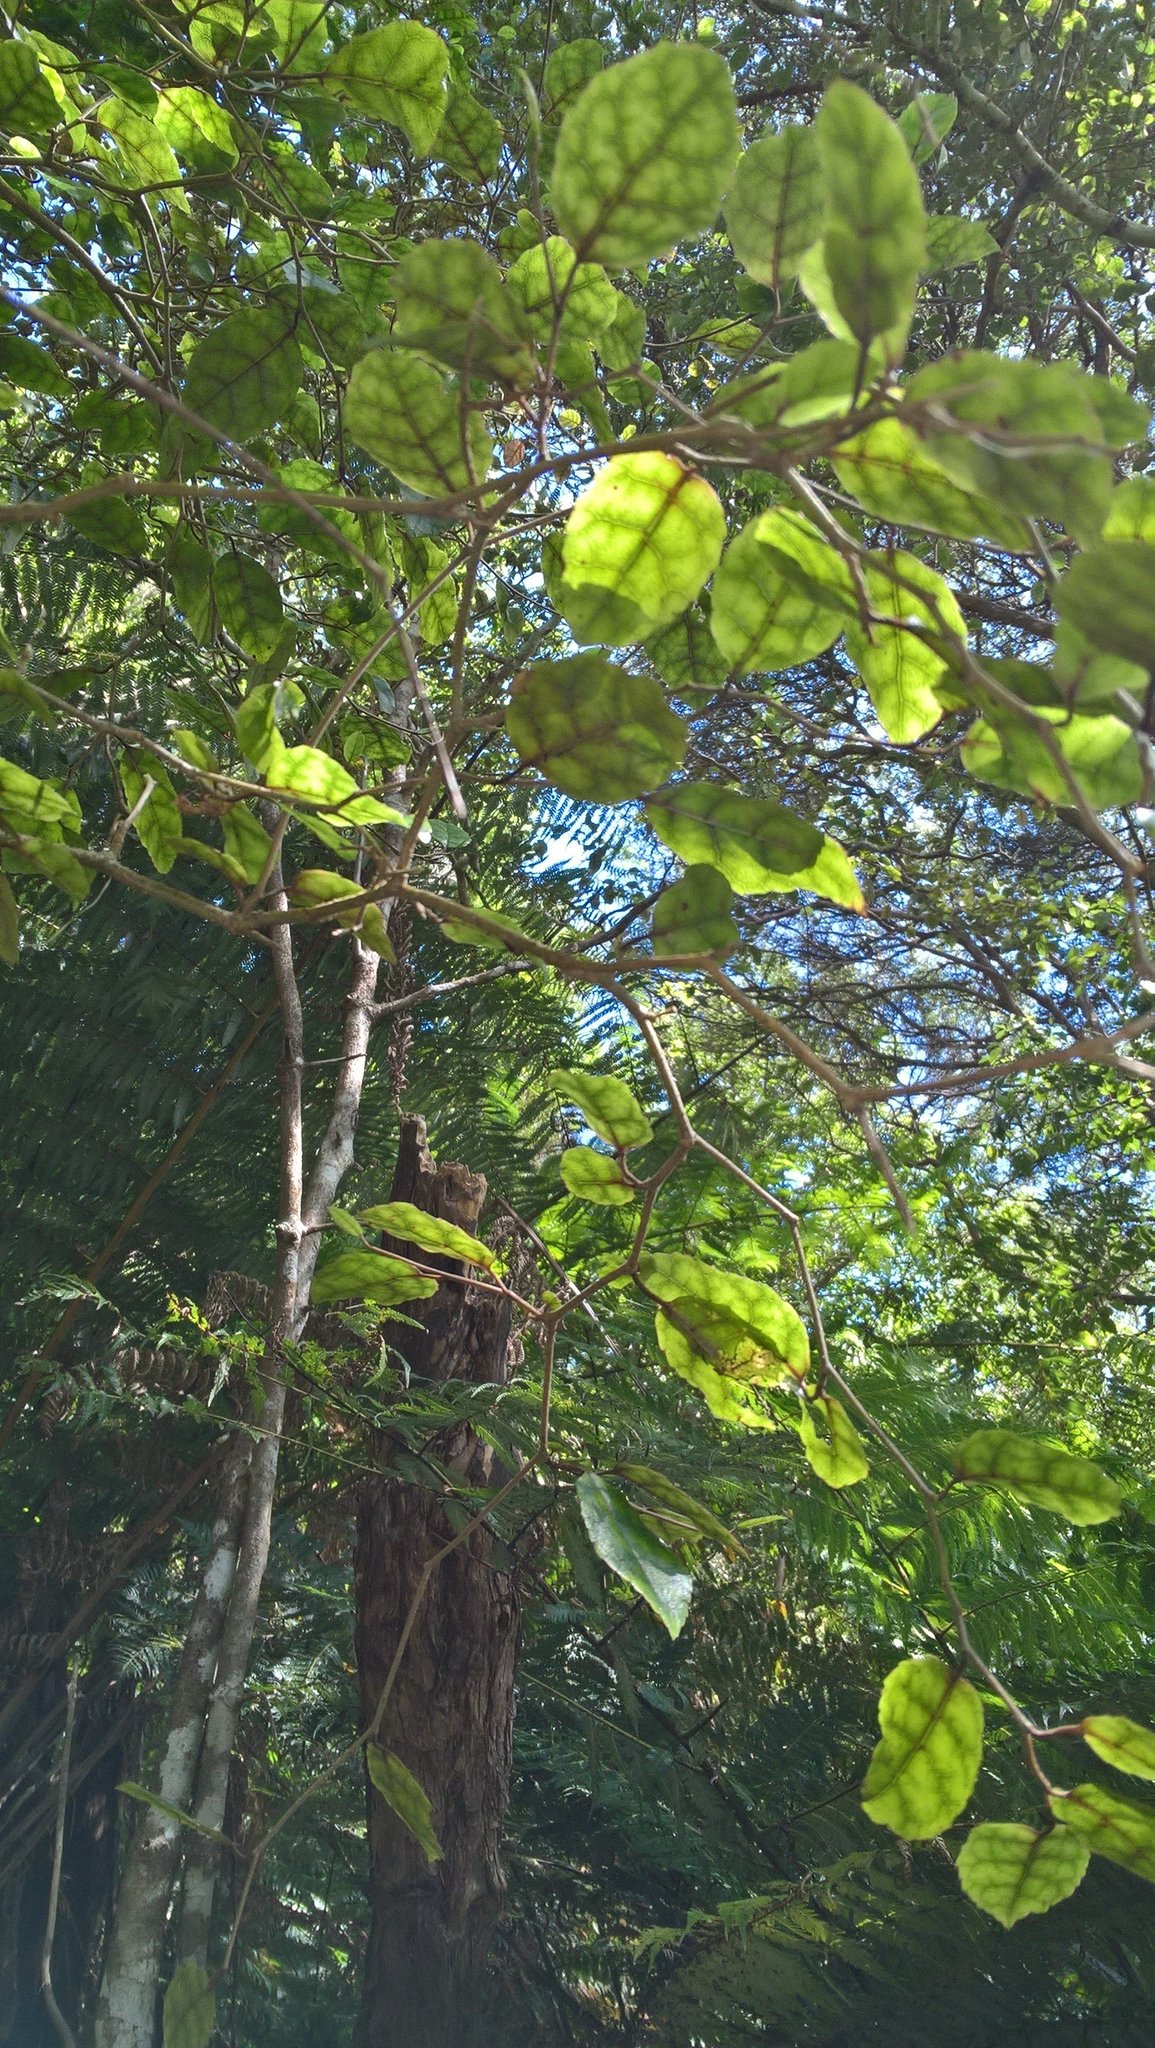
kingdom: Plantae
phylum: Tracheophyta
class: Magnoliopsida
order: Asterales
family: Rousseaceae
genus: Carpodetus
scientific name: Carpodetus serratus
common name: White mapau
